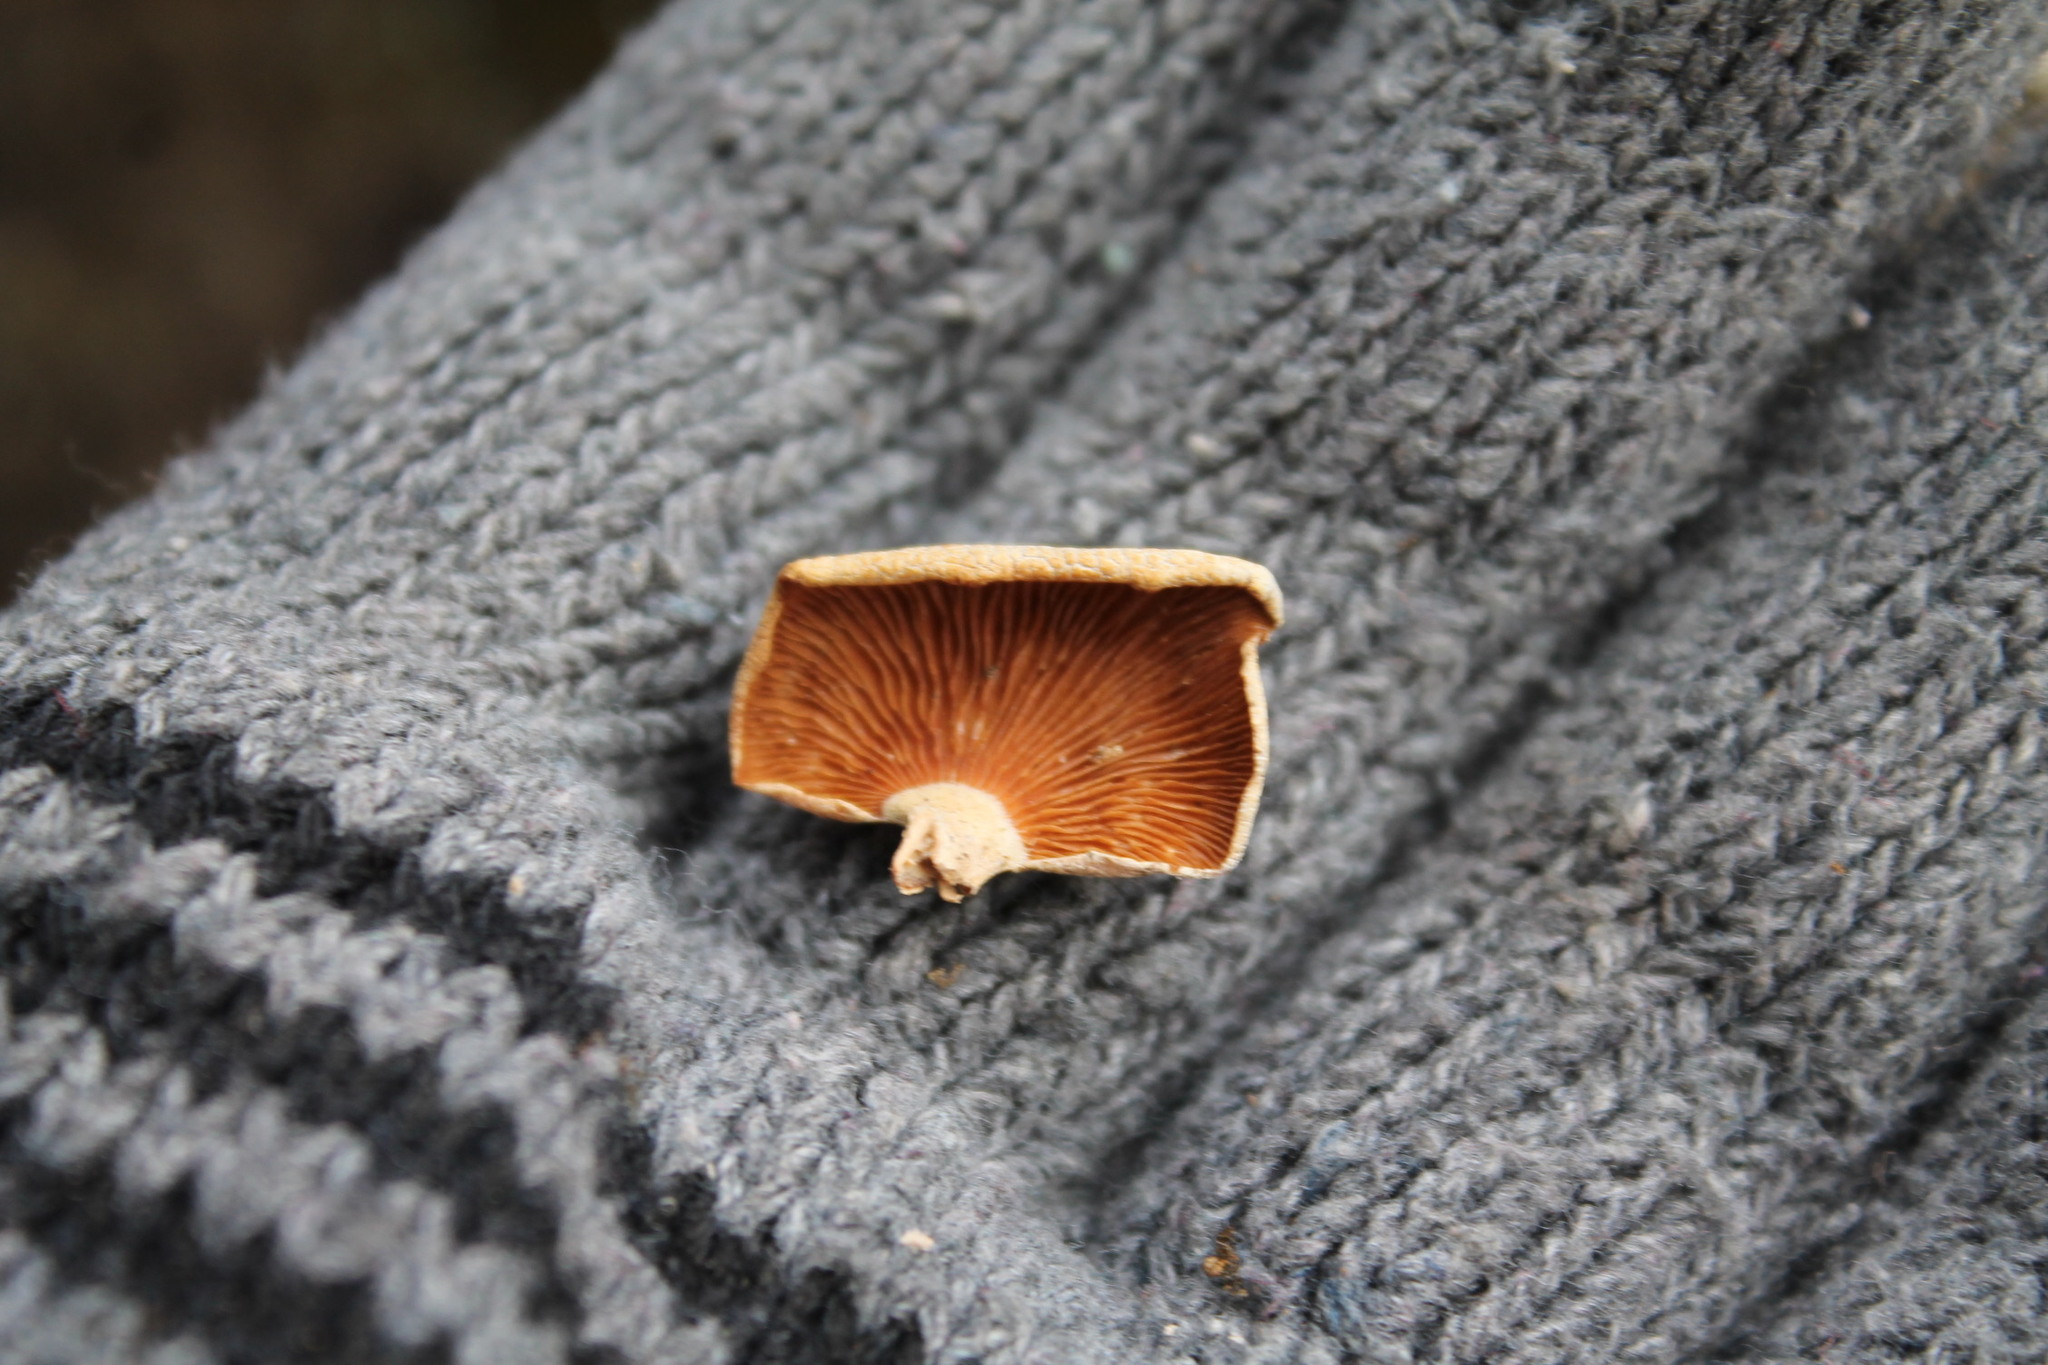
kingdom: Fungi
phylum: Basidiomycota
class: Agaricomycetes
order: Agaricales
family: Mycenaceae
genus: Panellus
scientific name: Panellus stipticus
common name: Bitter oysterling
